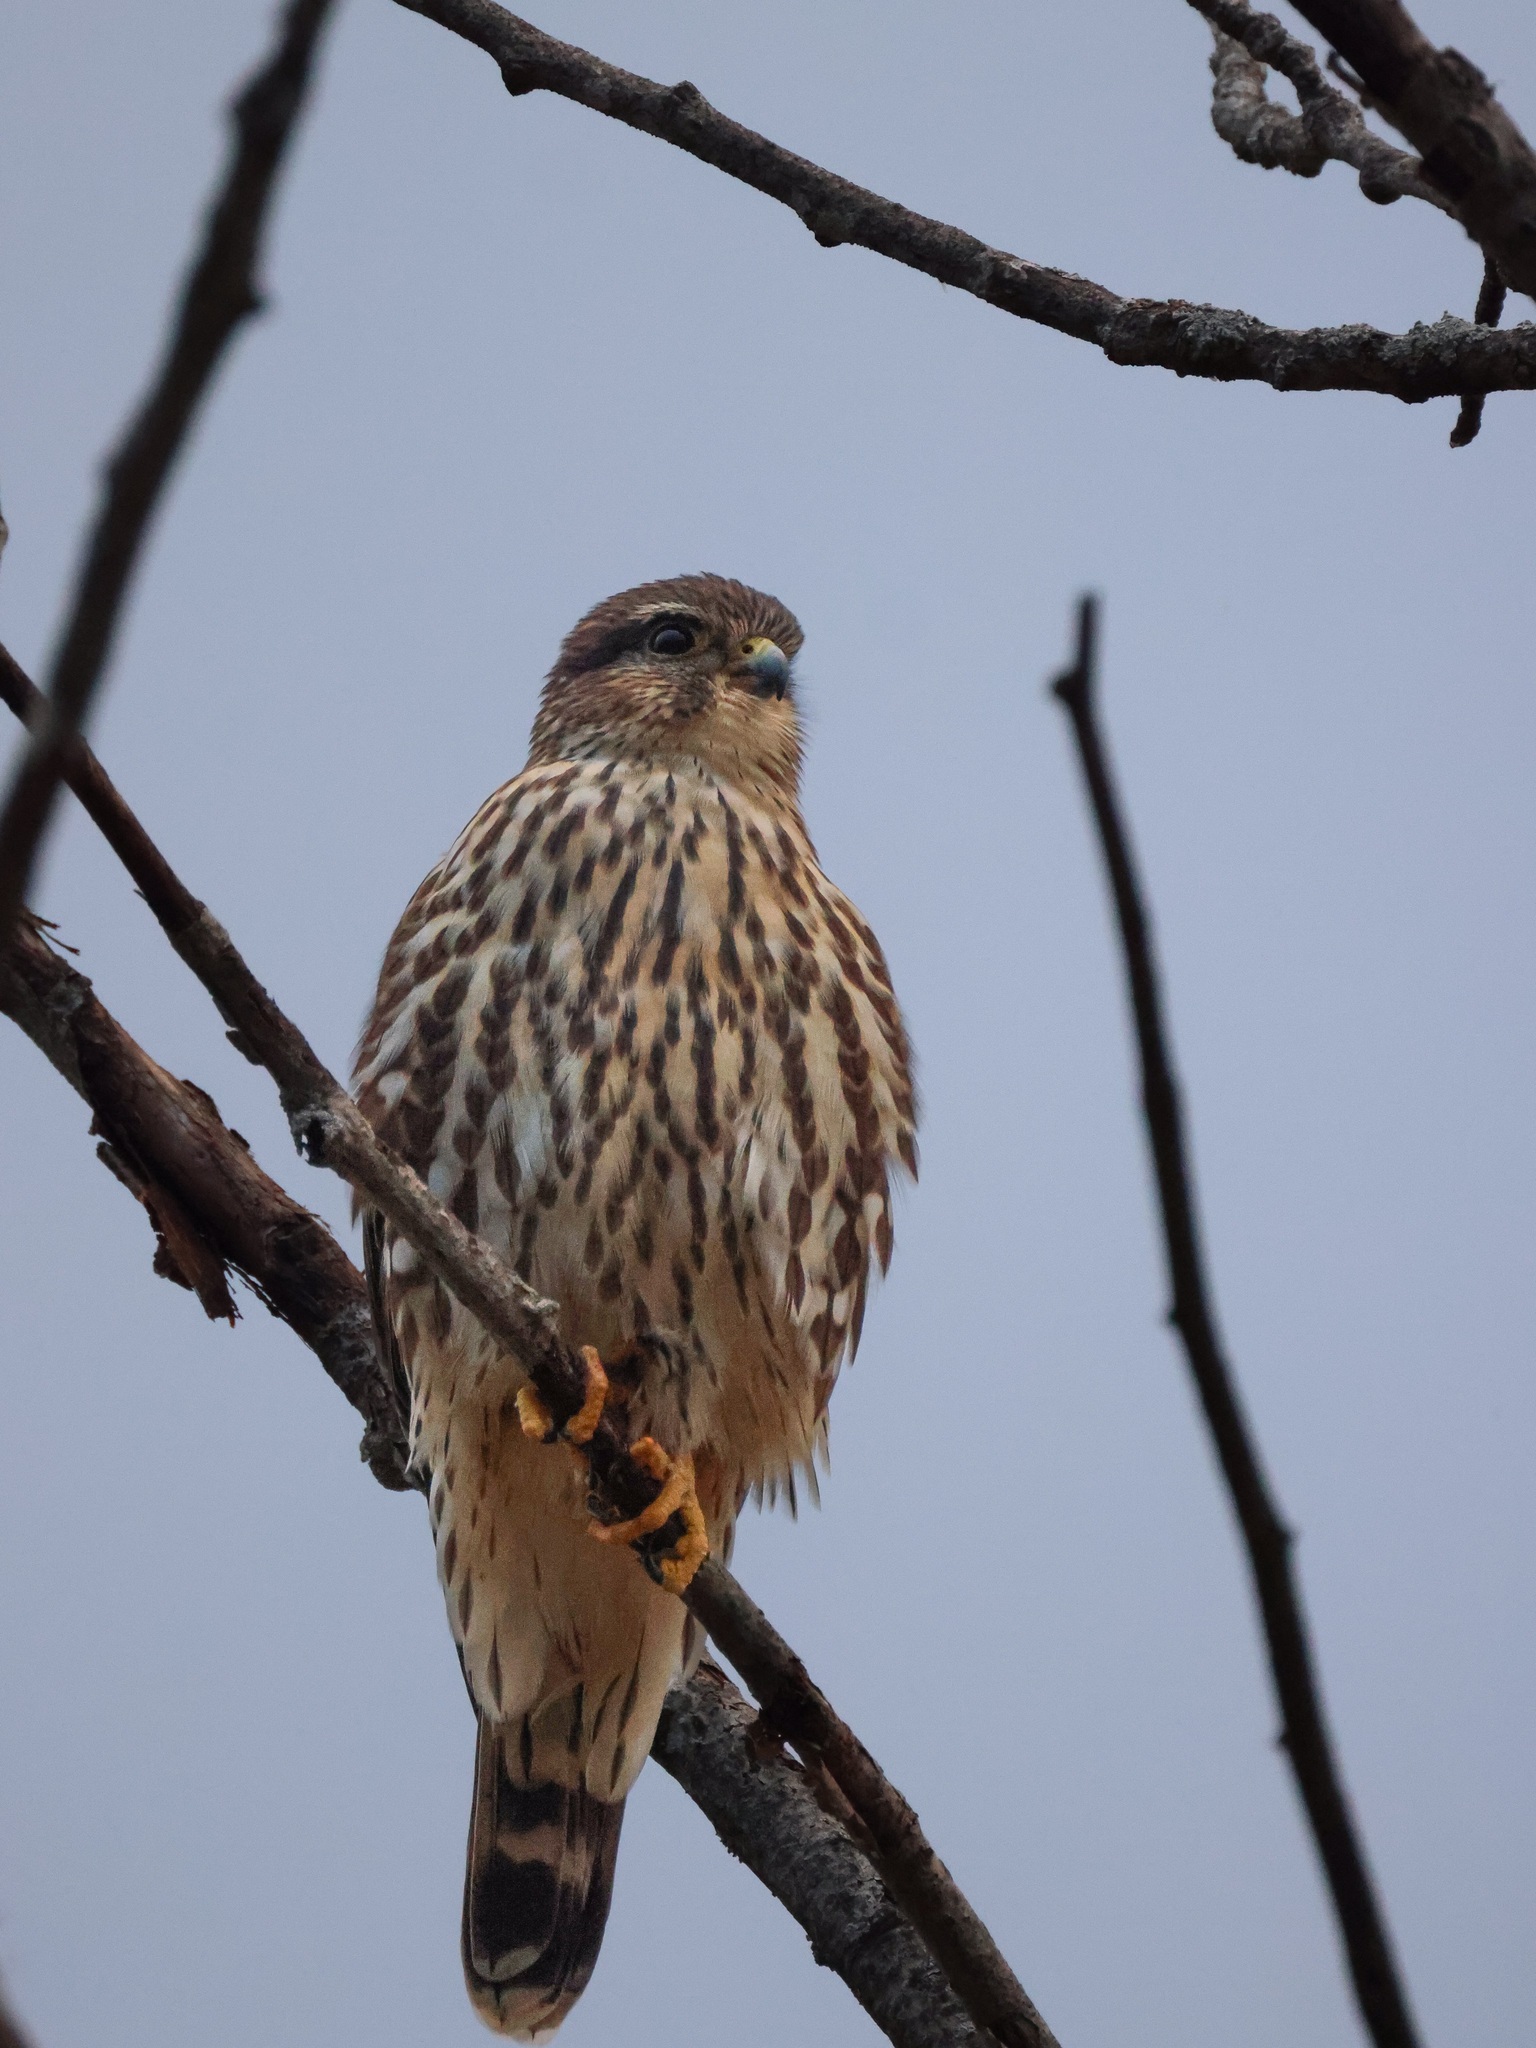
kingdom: Animalia
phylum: Chordata
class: Aves
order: Falconiformes
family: Falconidae
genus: Falco
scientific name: Falco columbarius
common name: Merlin
